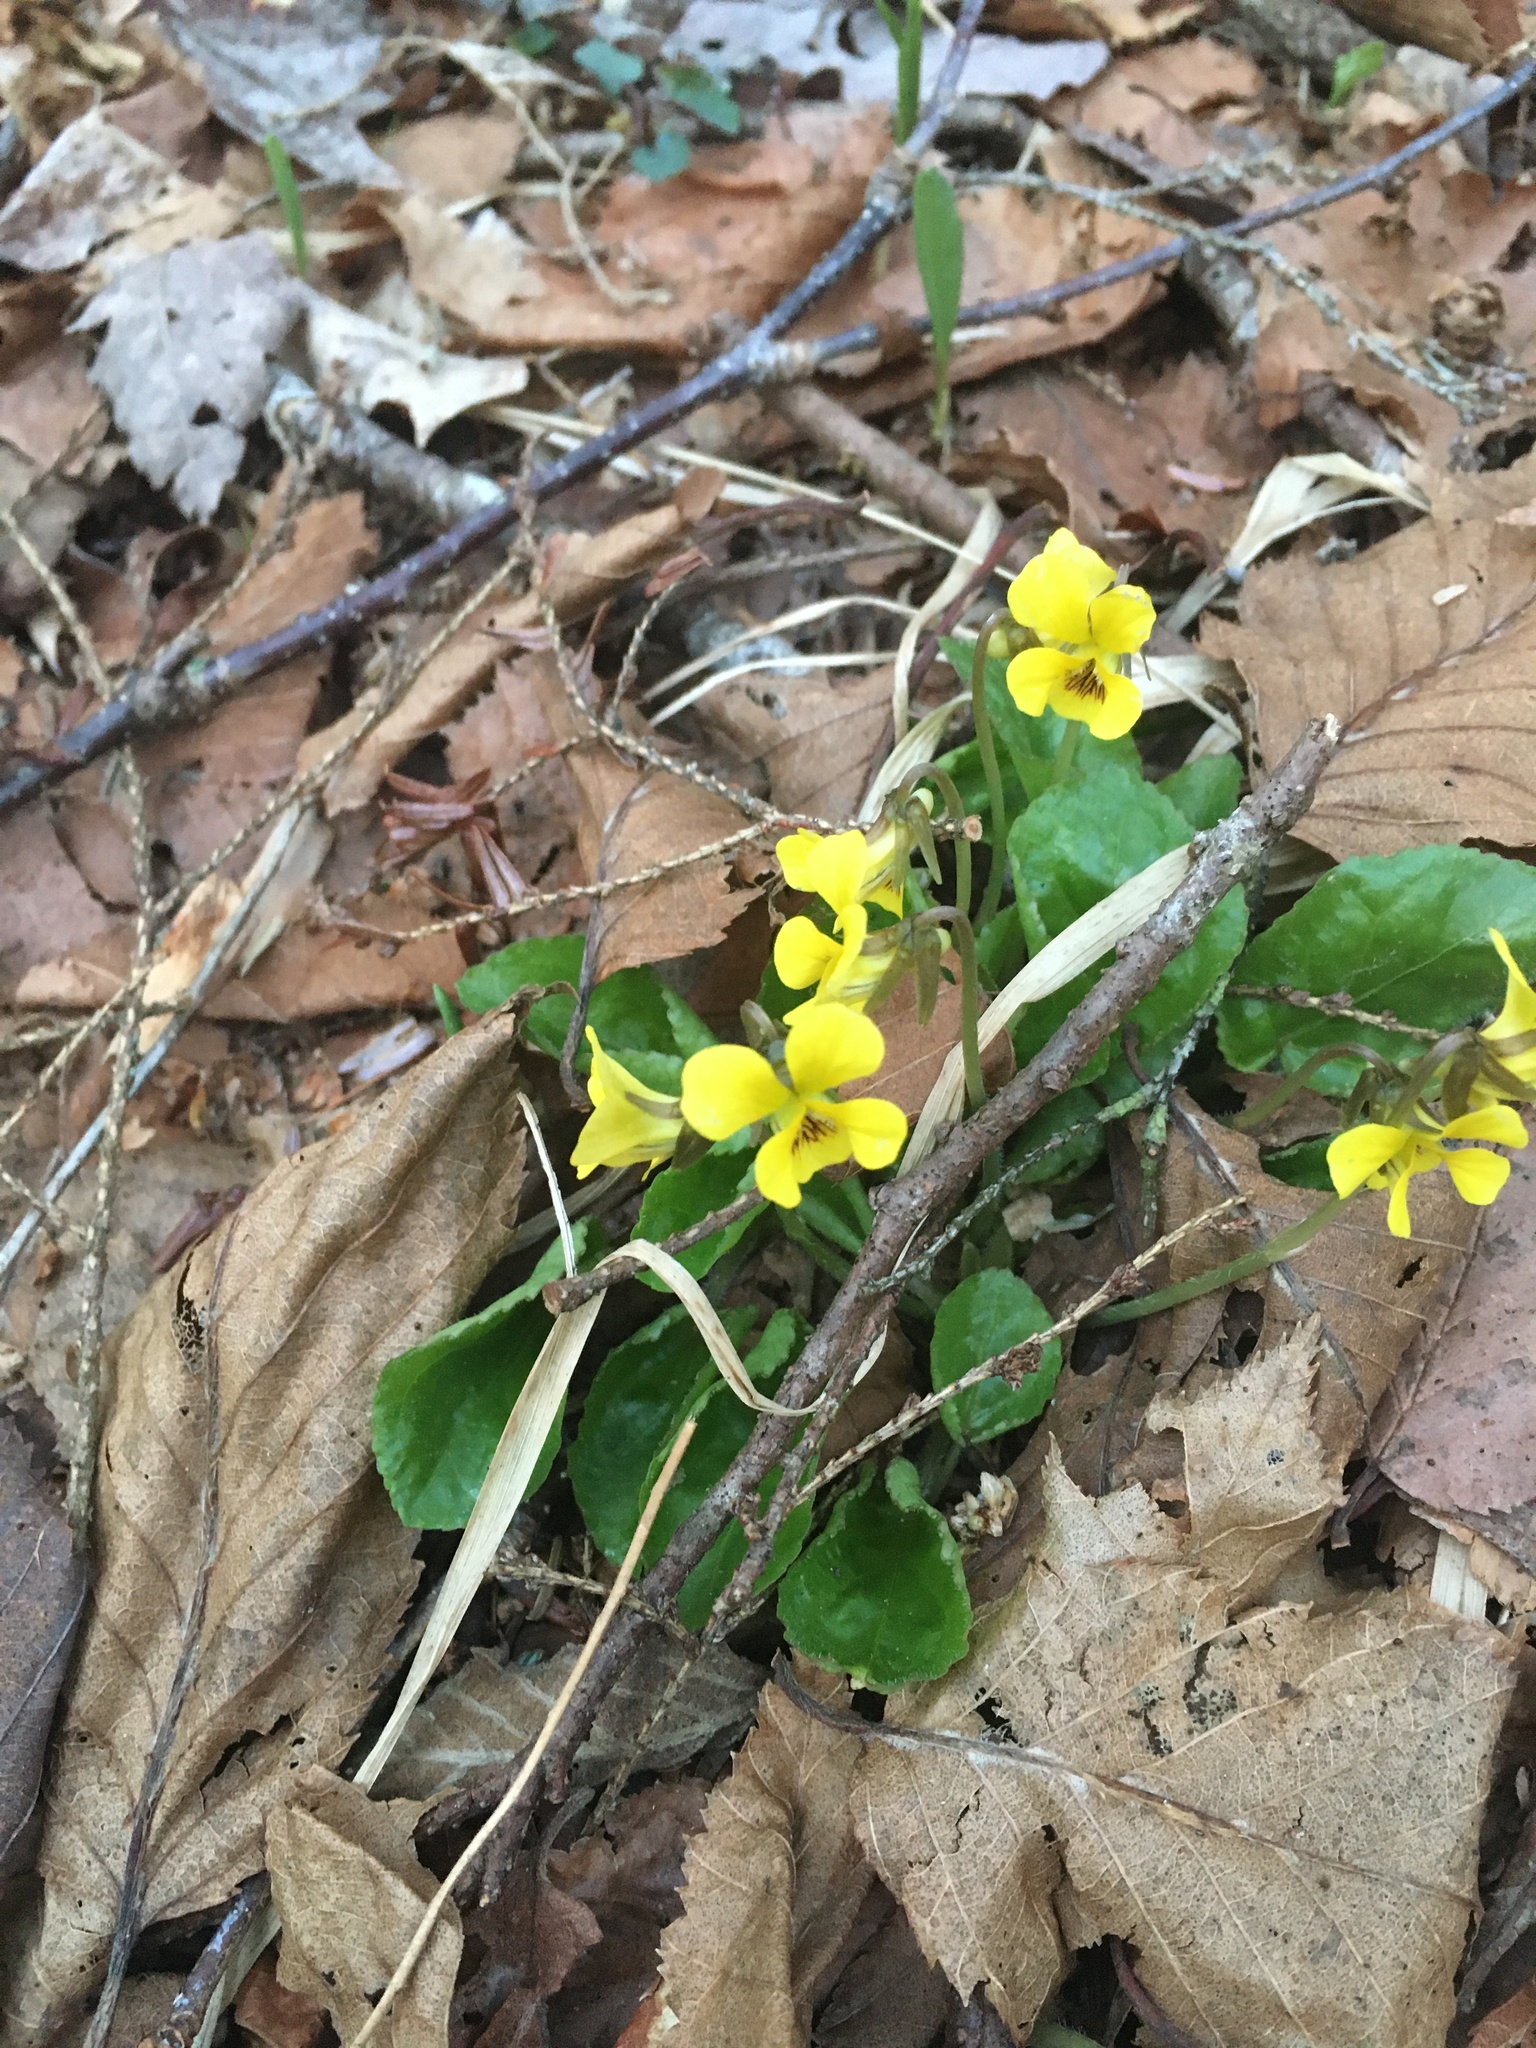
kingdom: Plantae
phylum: Tracheophyta
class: Magnoliopsida
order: Malpighiales
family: Violaceae
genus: Viola
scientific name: Viola rotundifolia
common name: Early yellow violet
